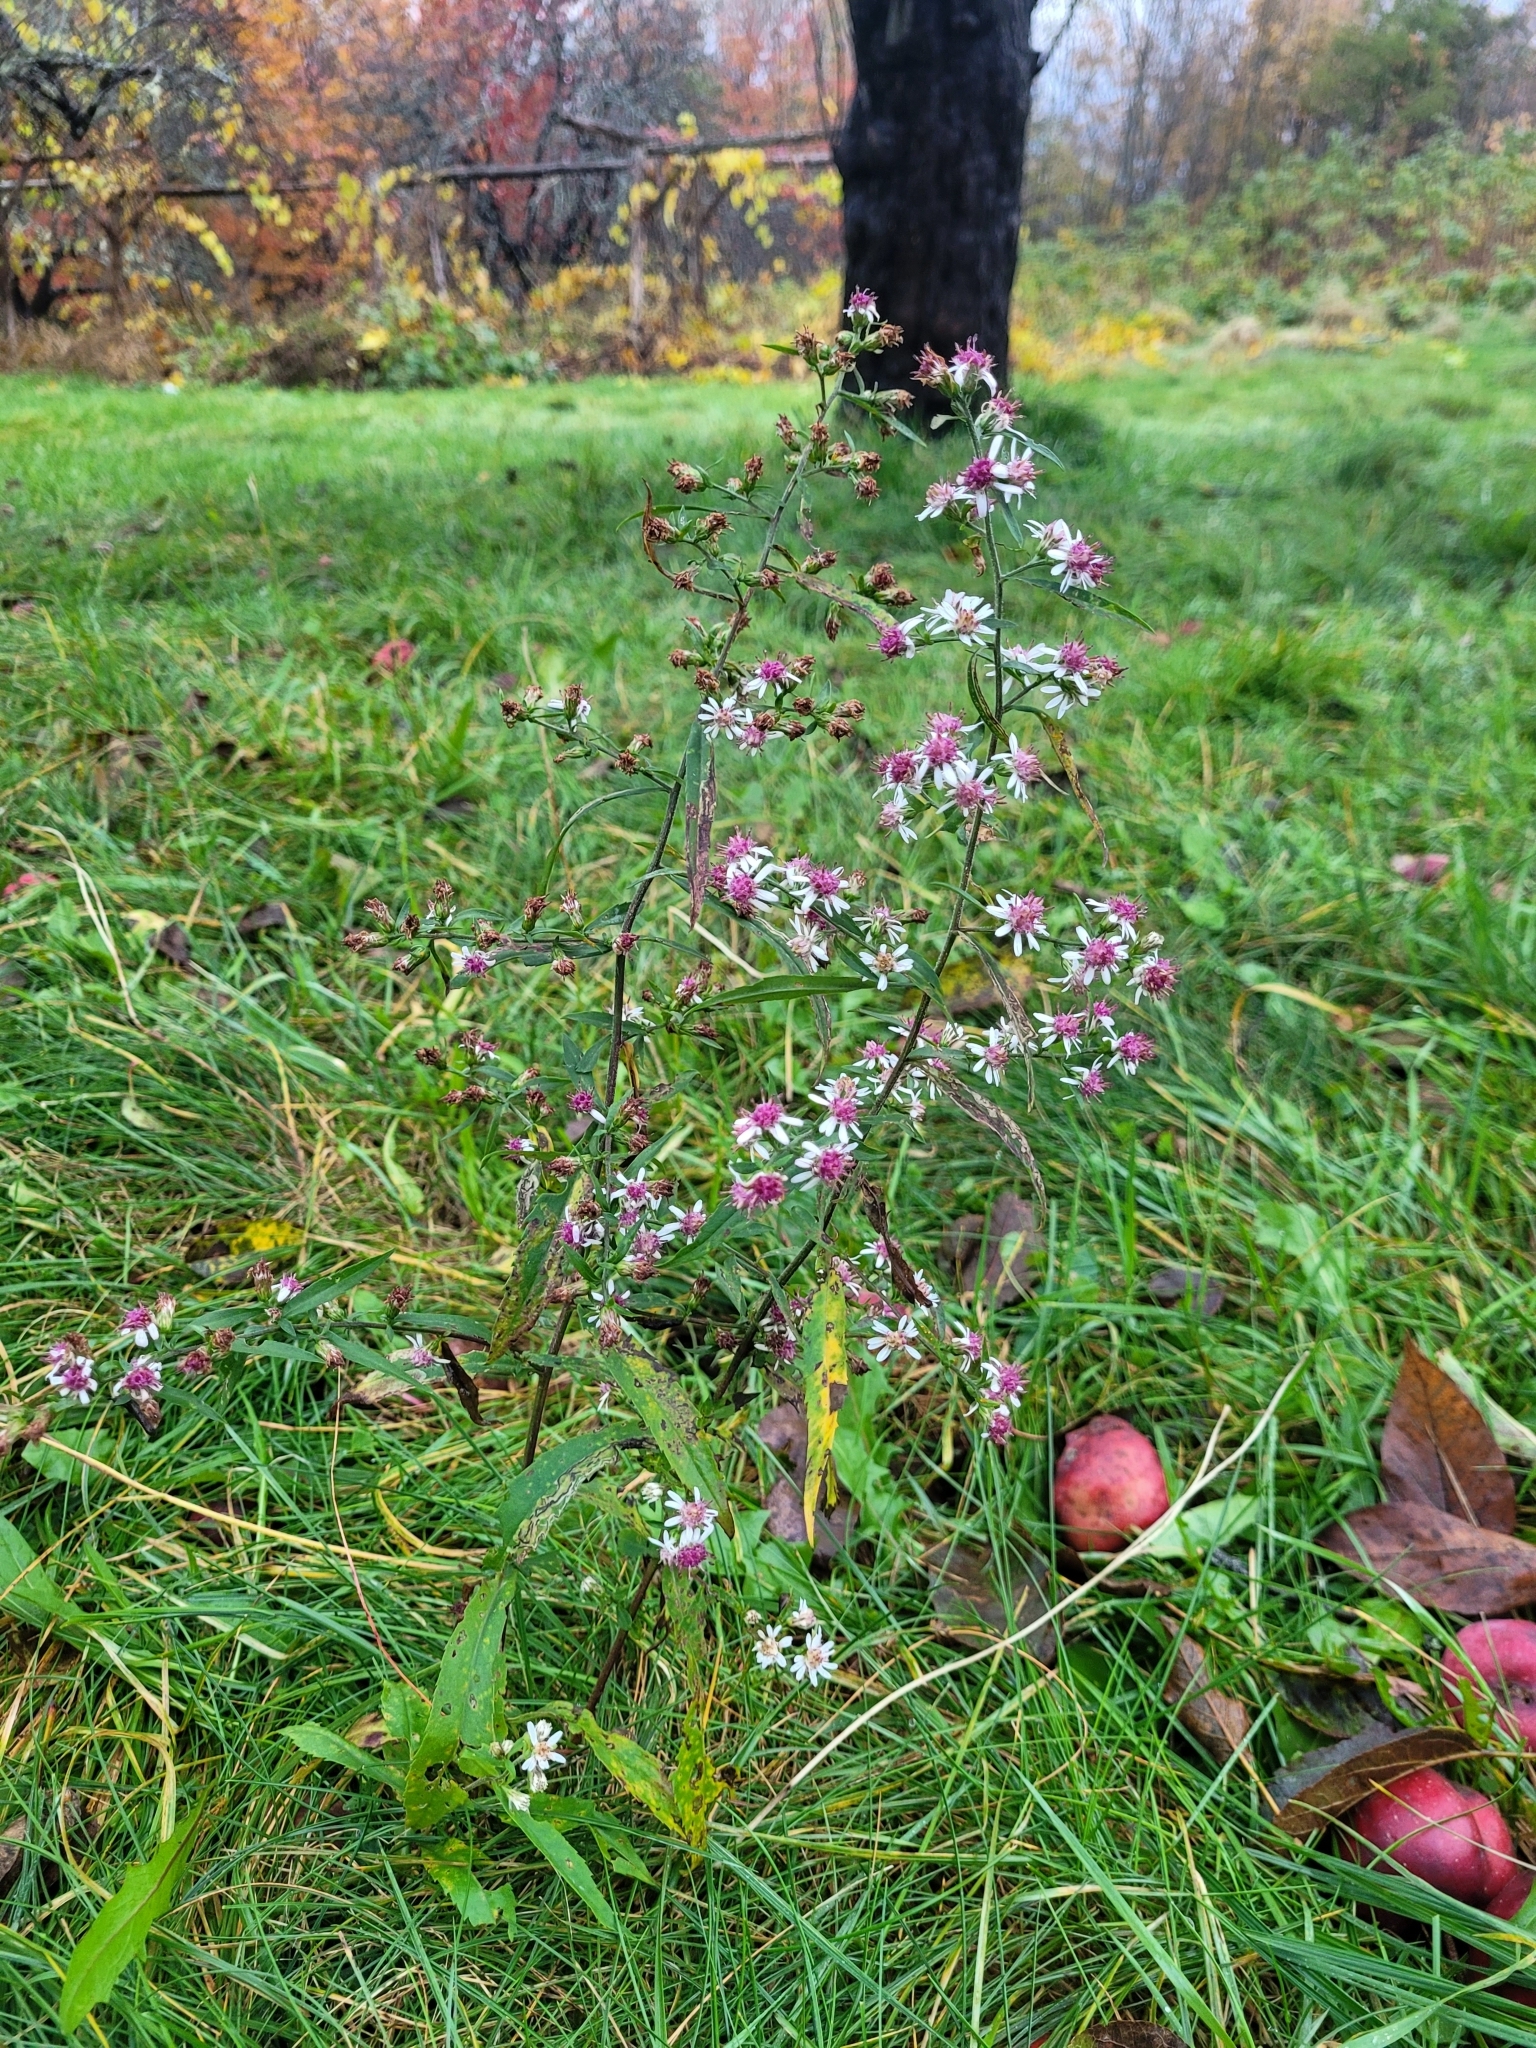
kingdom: Plantae
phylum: Tracheophyta
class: Magnoliopsida
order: Asterales
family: Asteraceae
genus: Symphyotrichum
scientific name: Symphyotrichum lateriflorum
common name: Calico aster
